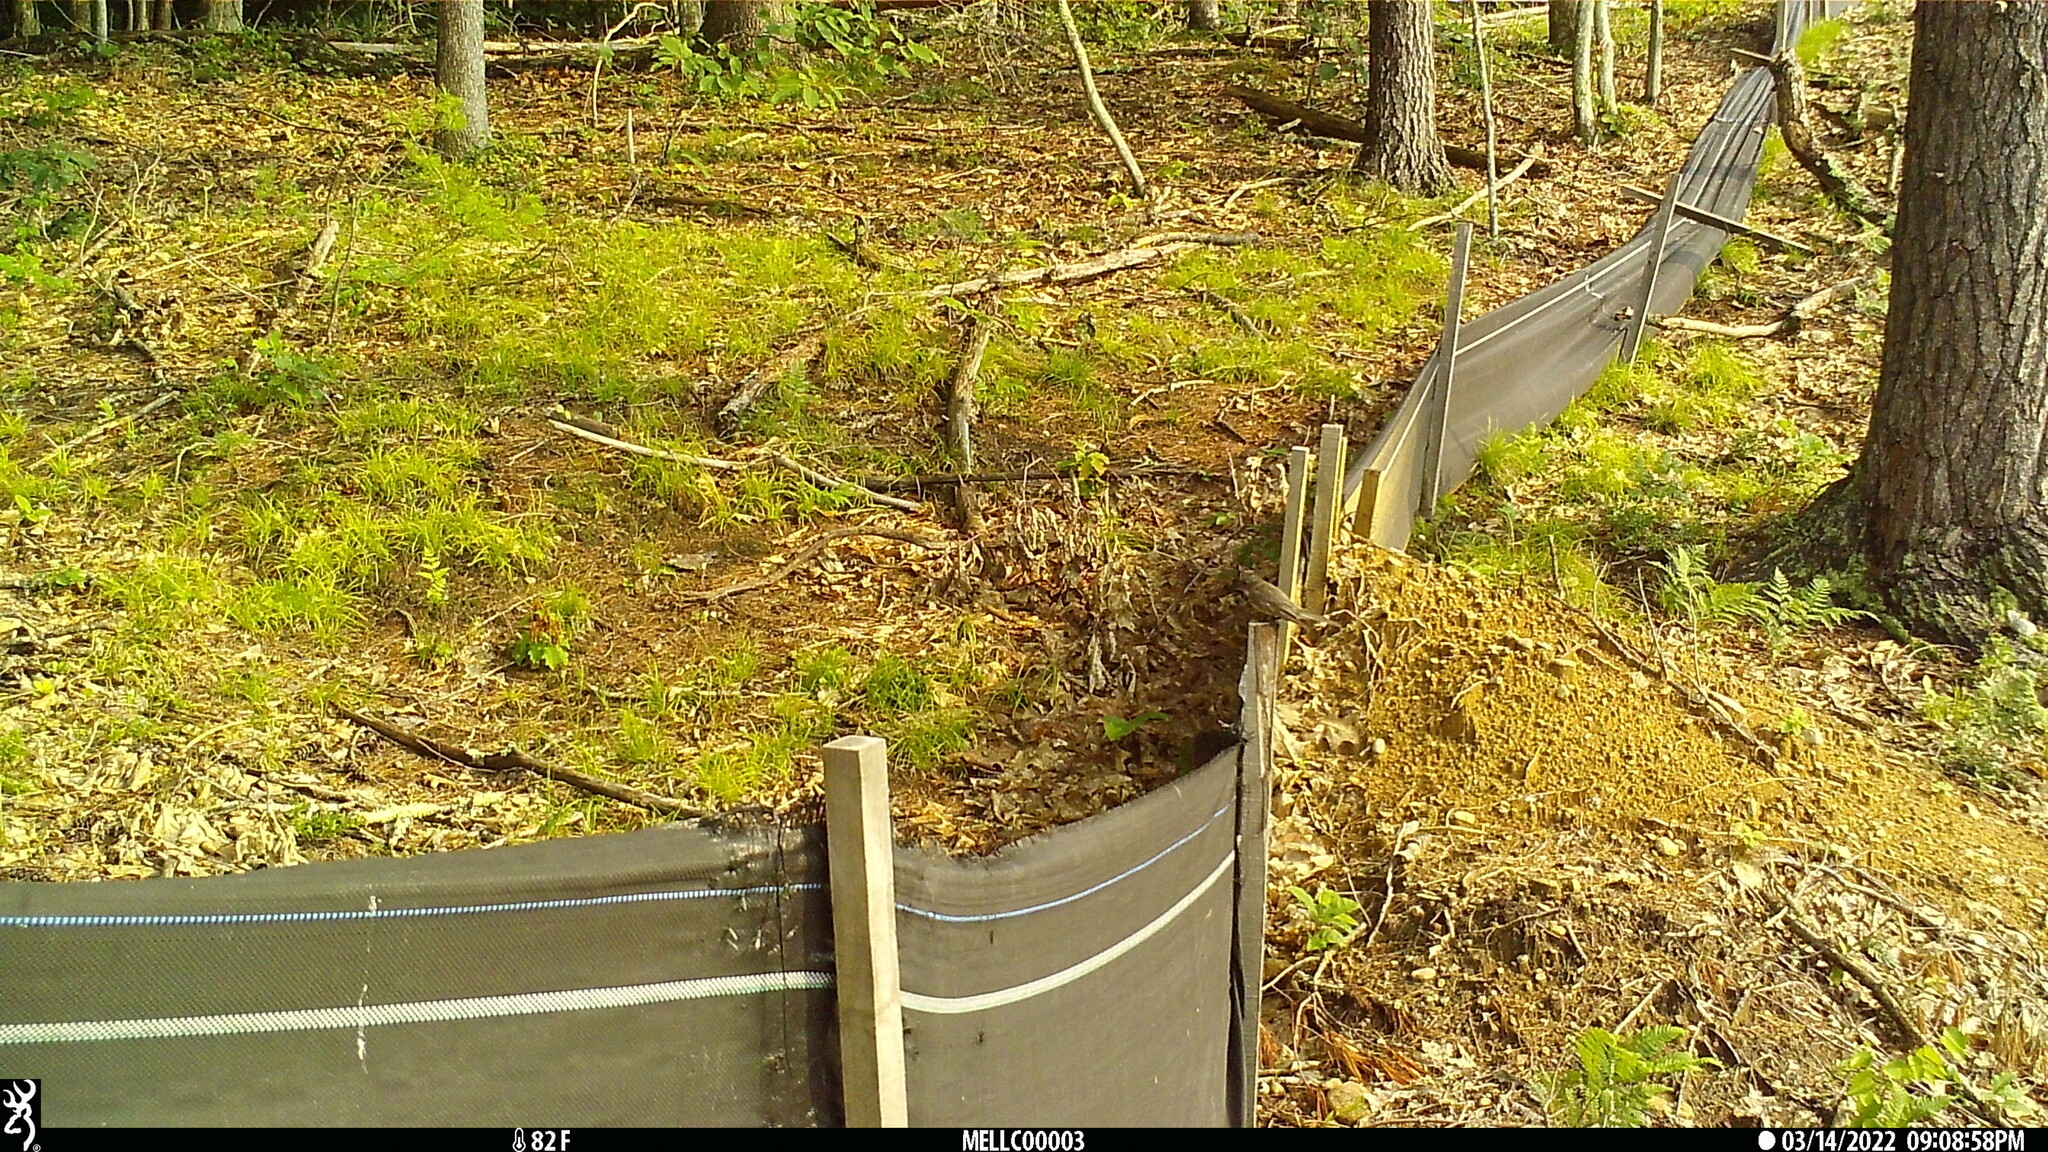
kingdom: Animalia
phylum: Chordata
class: Aves
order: Passeriformes
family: Tyrannidae
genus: Sayornis
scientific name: Sayornis phoebe
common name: Eastern phoebe
